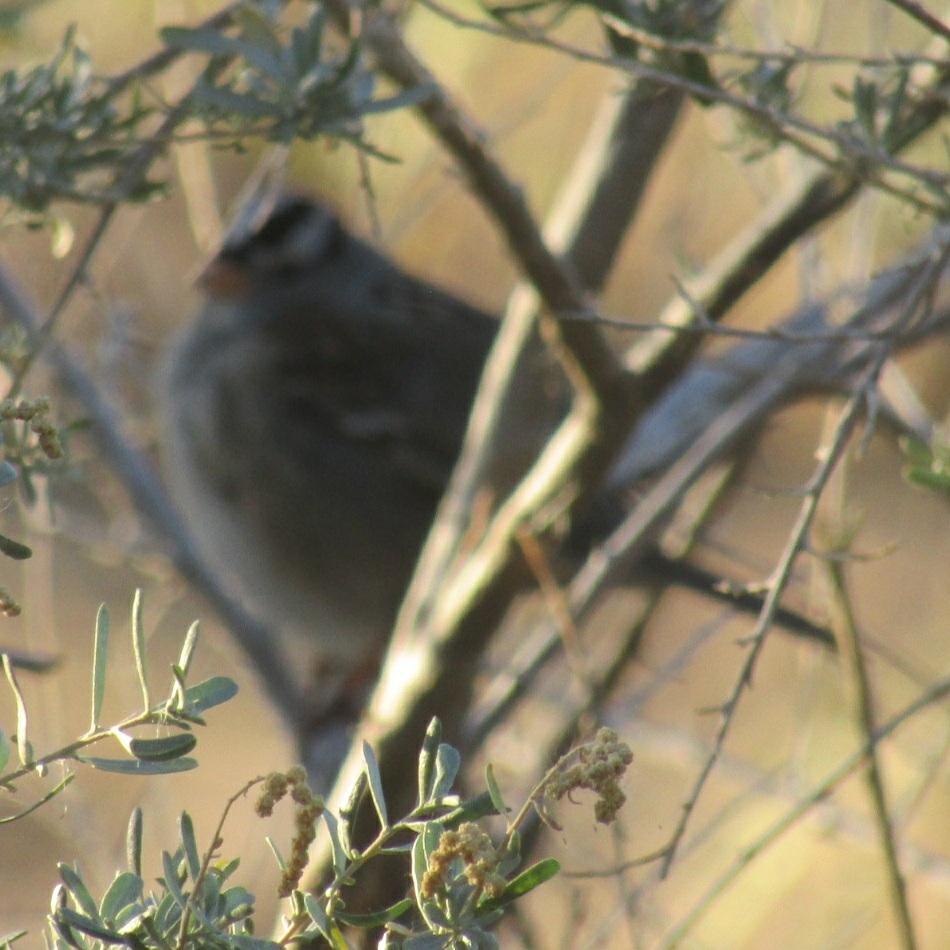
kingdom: Animalia
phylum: Chordata
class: Aves
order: Passeriformes
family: Passerellidae
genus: Zonotrichia
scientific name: Zonotrichia leucophrys
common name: White-crowned sparrow
